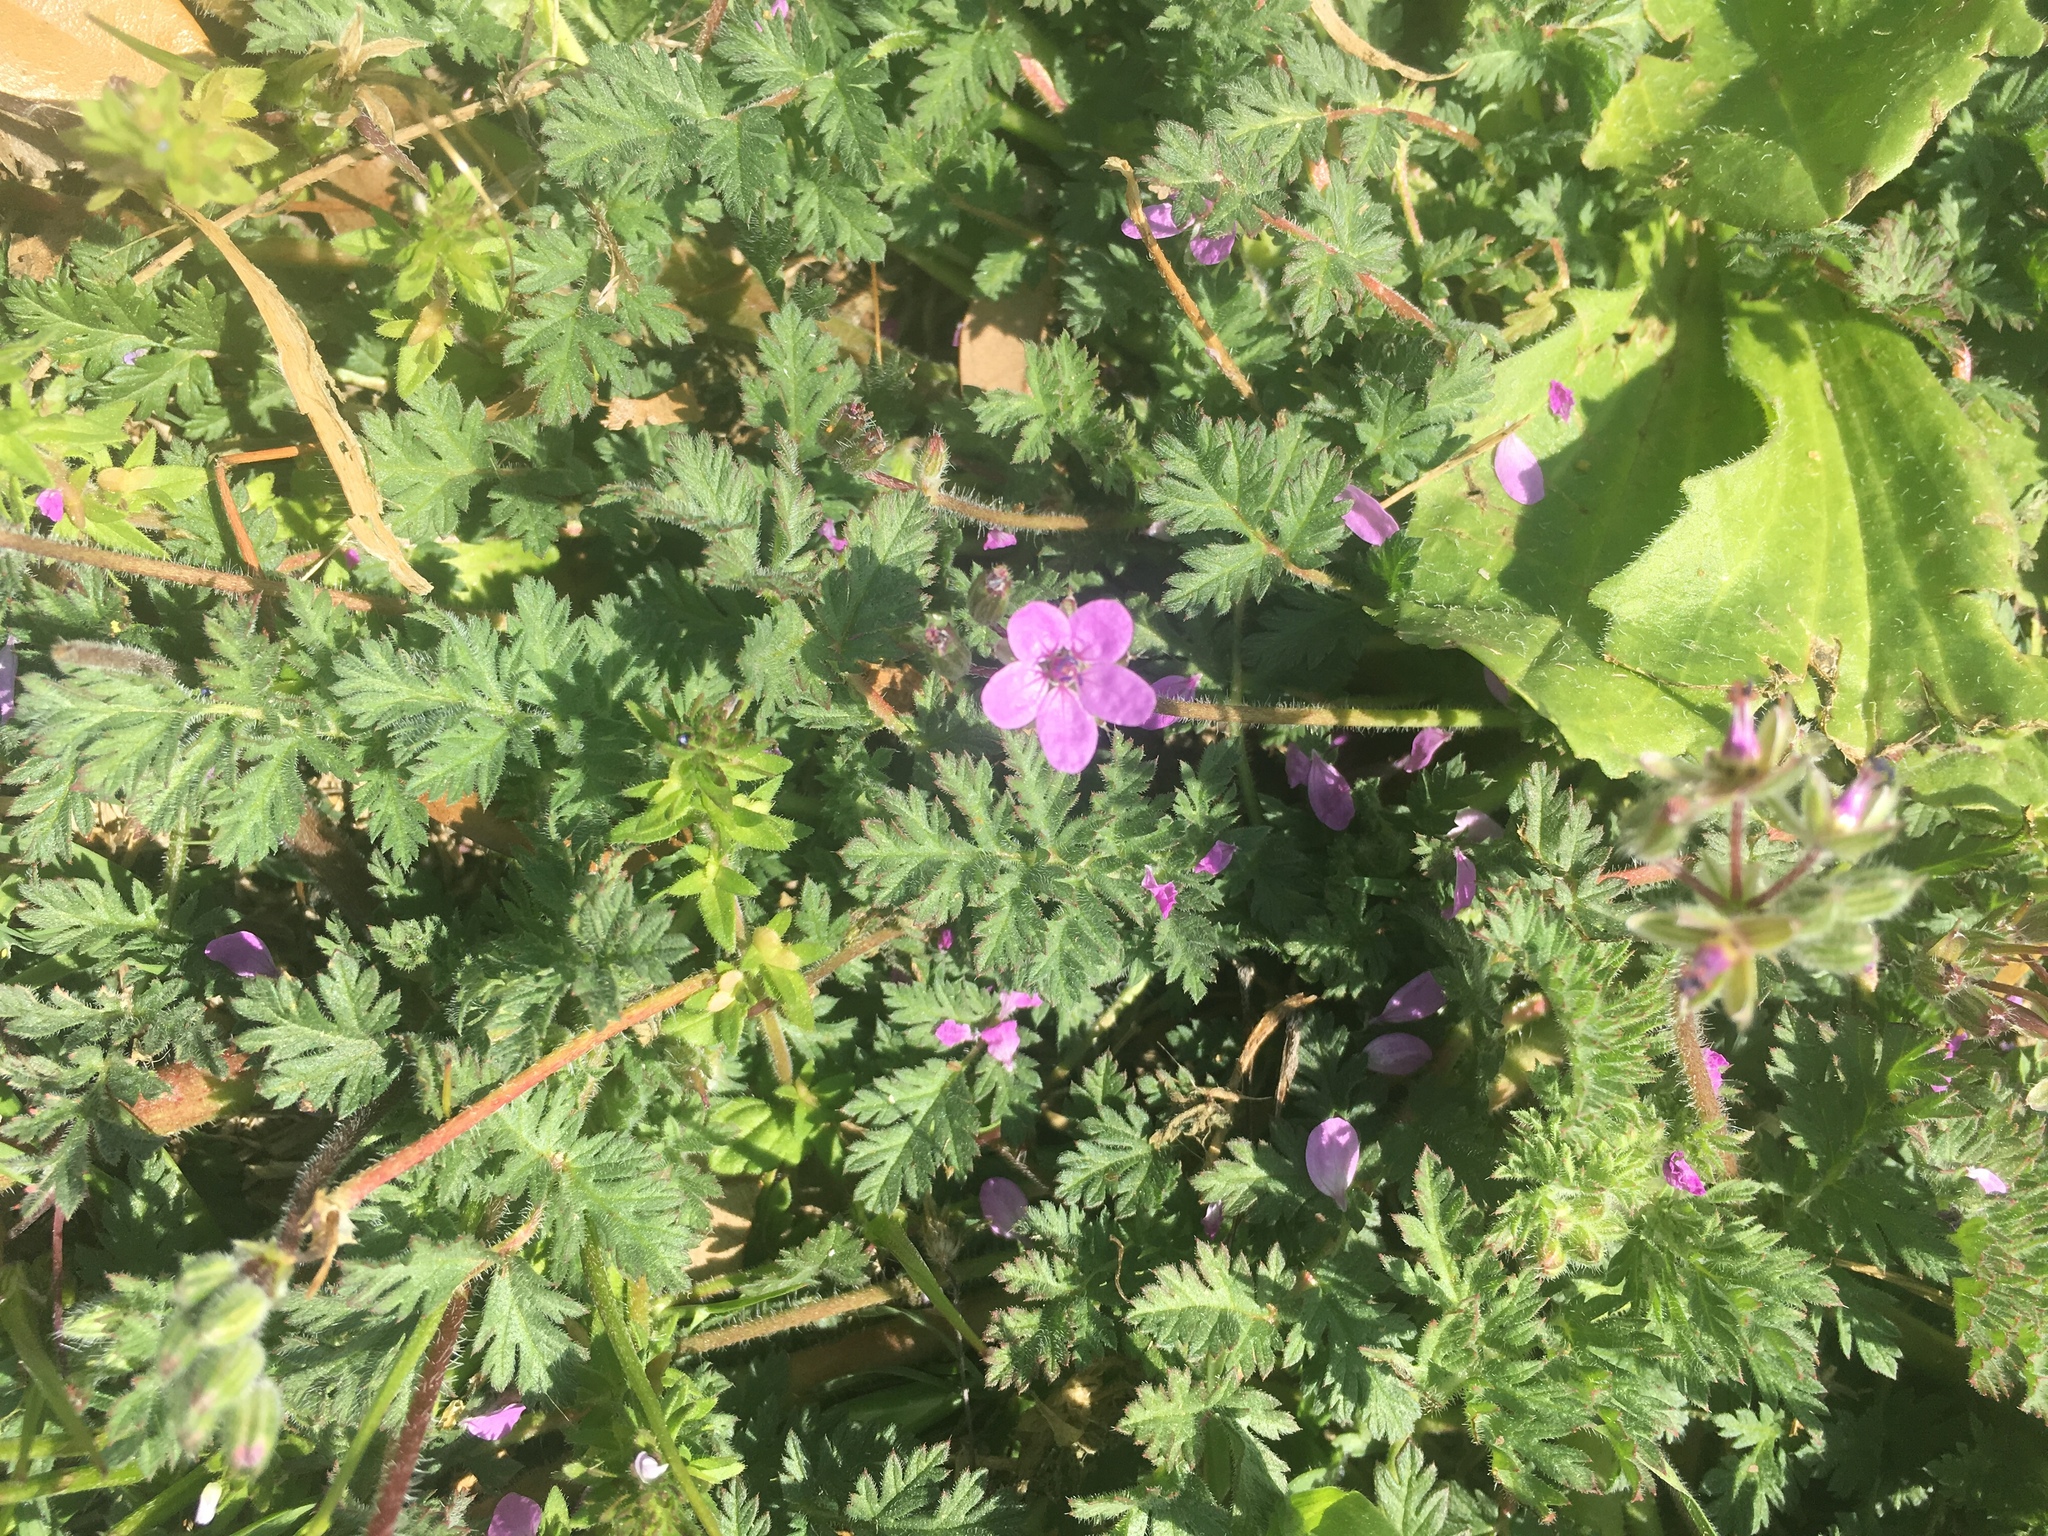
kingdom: Plantae
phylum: Tracheophyta
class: Magnoliopsida
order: Geraniales
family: Geraniaceae
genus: Erodium
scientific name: Erodium cicutarium
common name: Common stork's-bill
